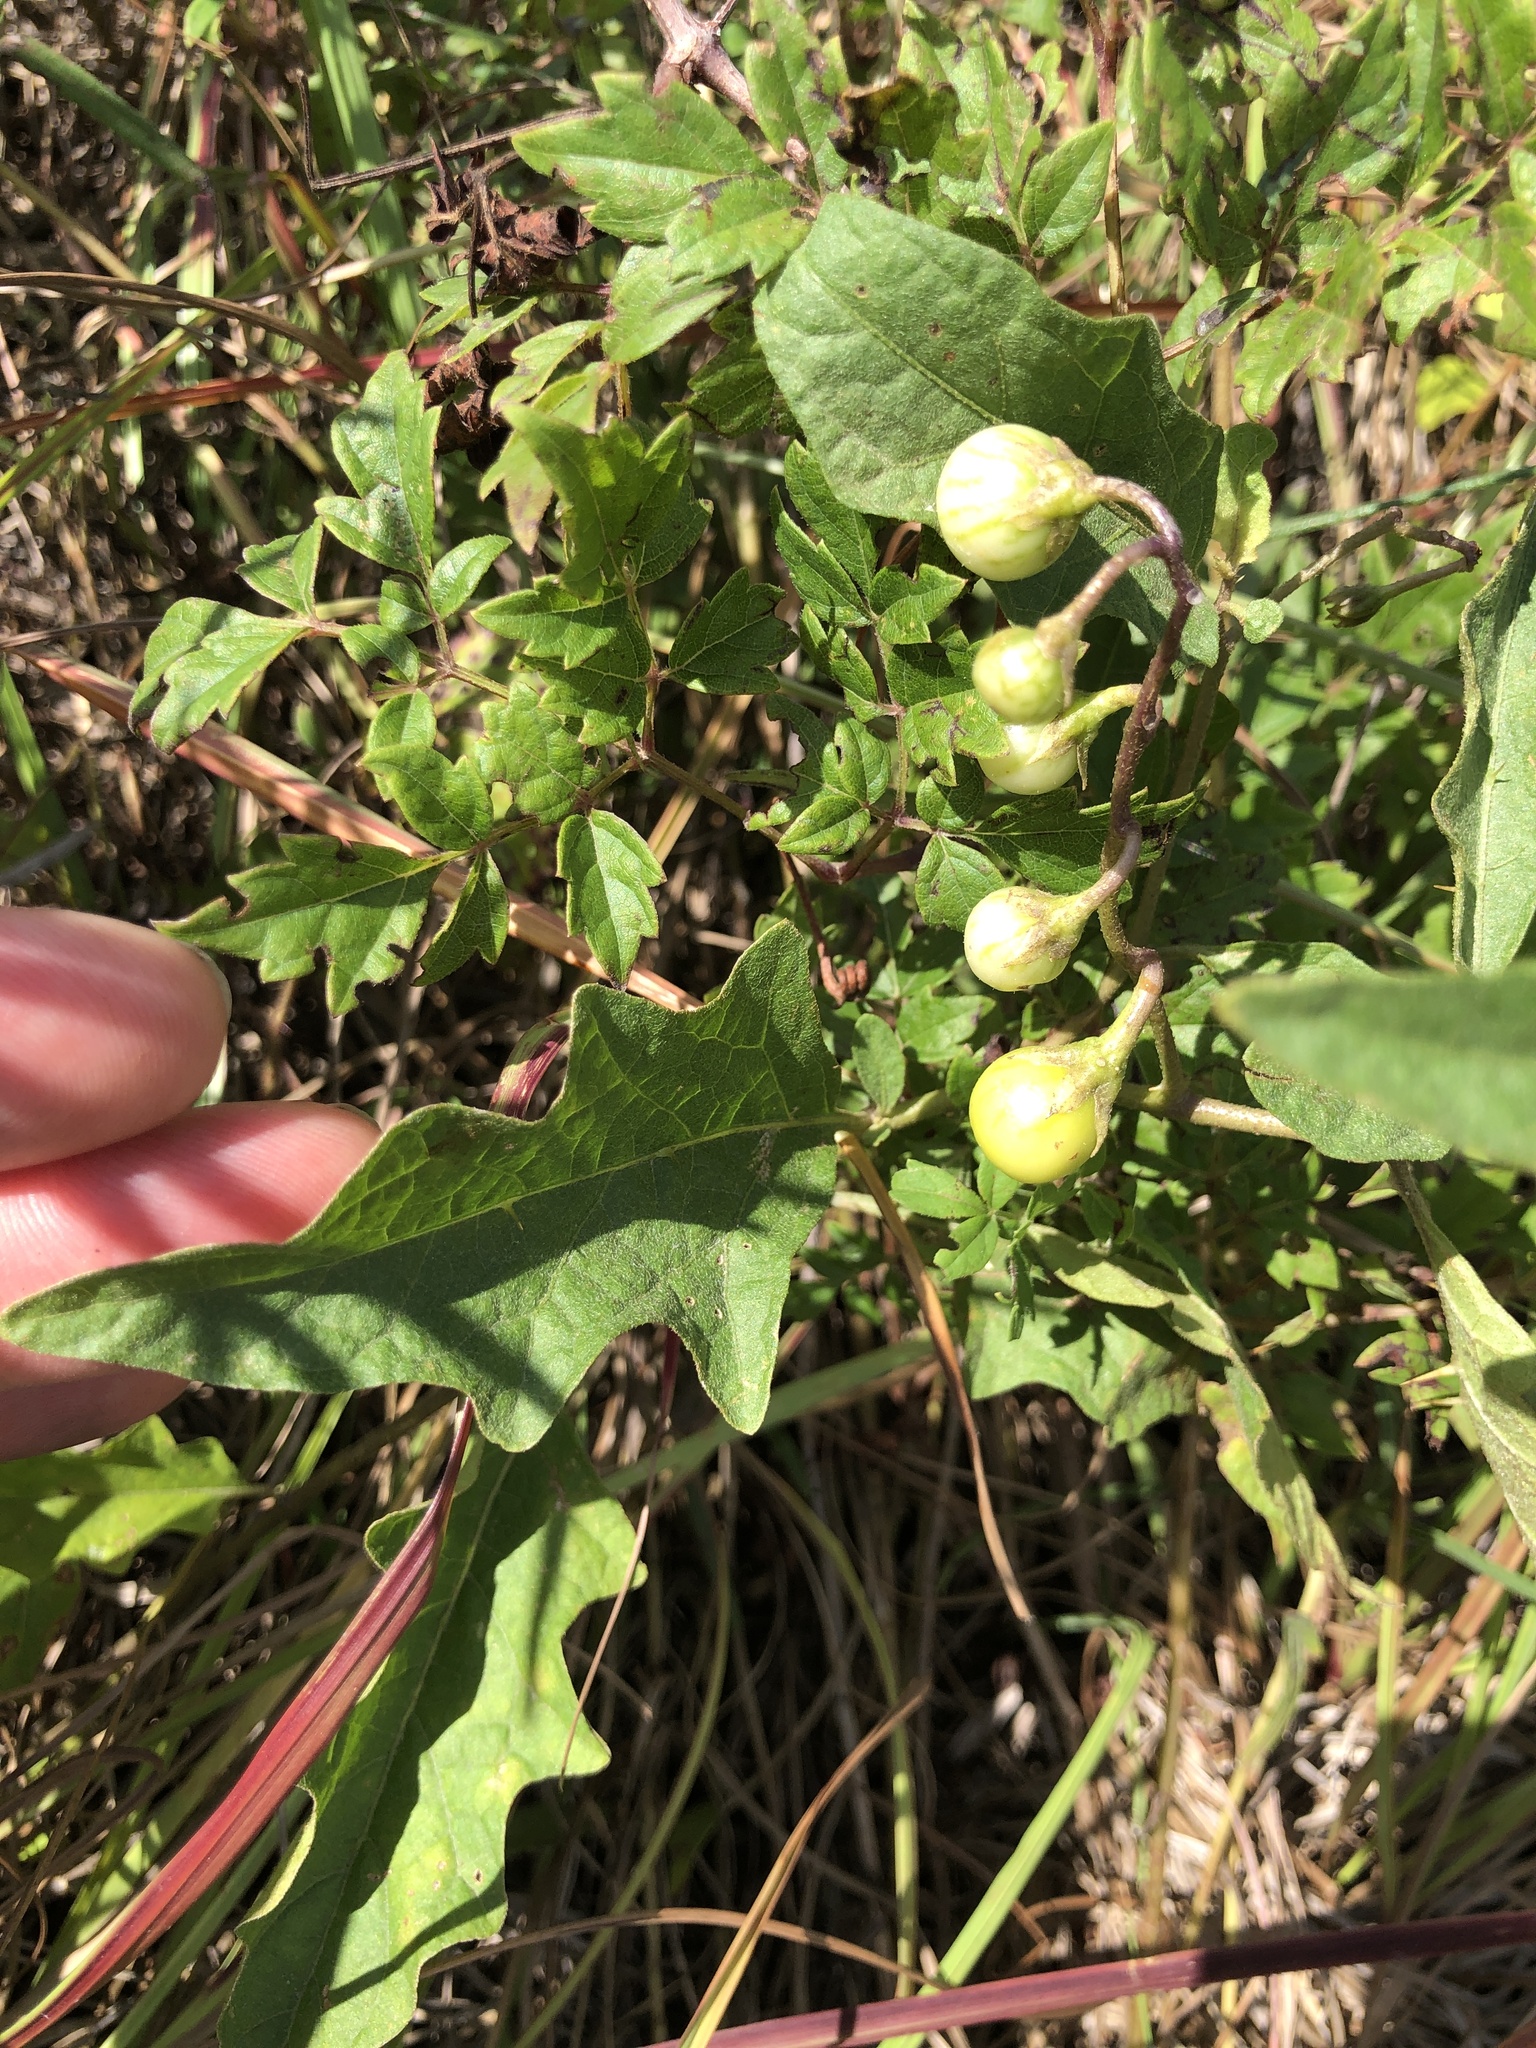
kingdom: Plantae
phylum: Tracheophyta
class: Magnoliopsida
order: Solanales
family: Solanaceae
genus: Solanum
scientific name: Solanum carolinense
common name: Horse-nettle
